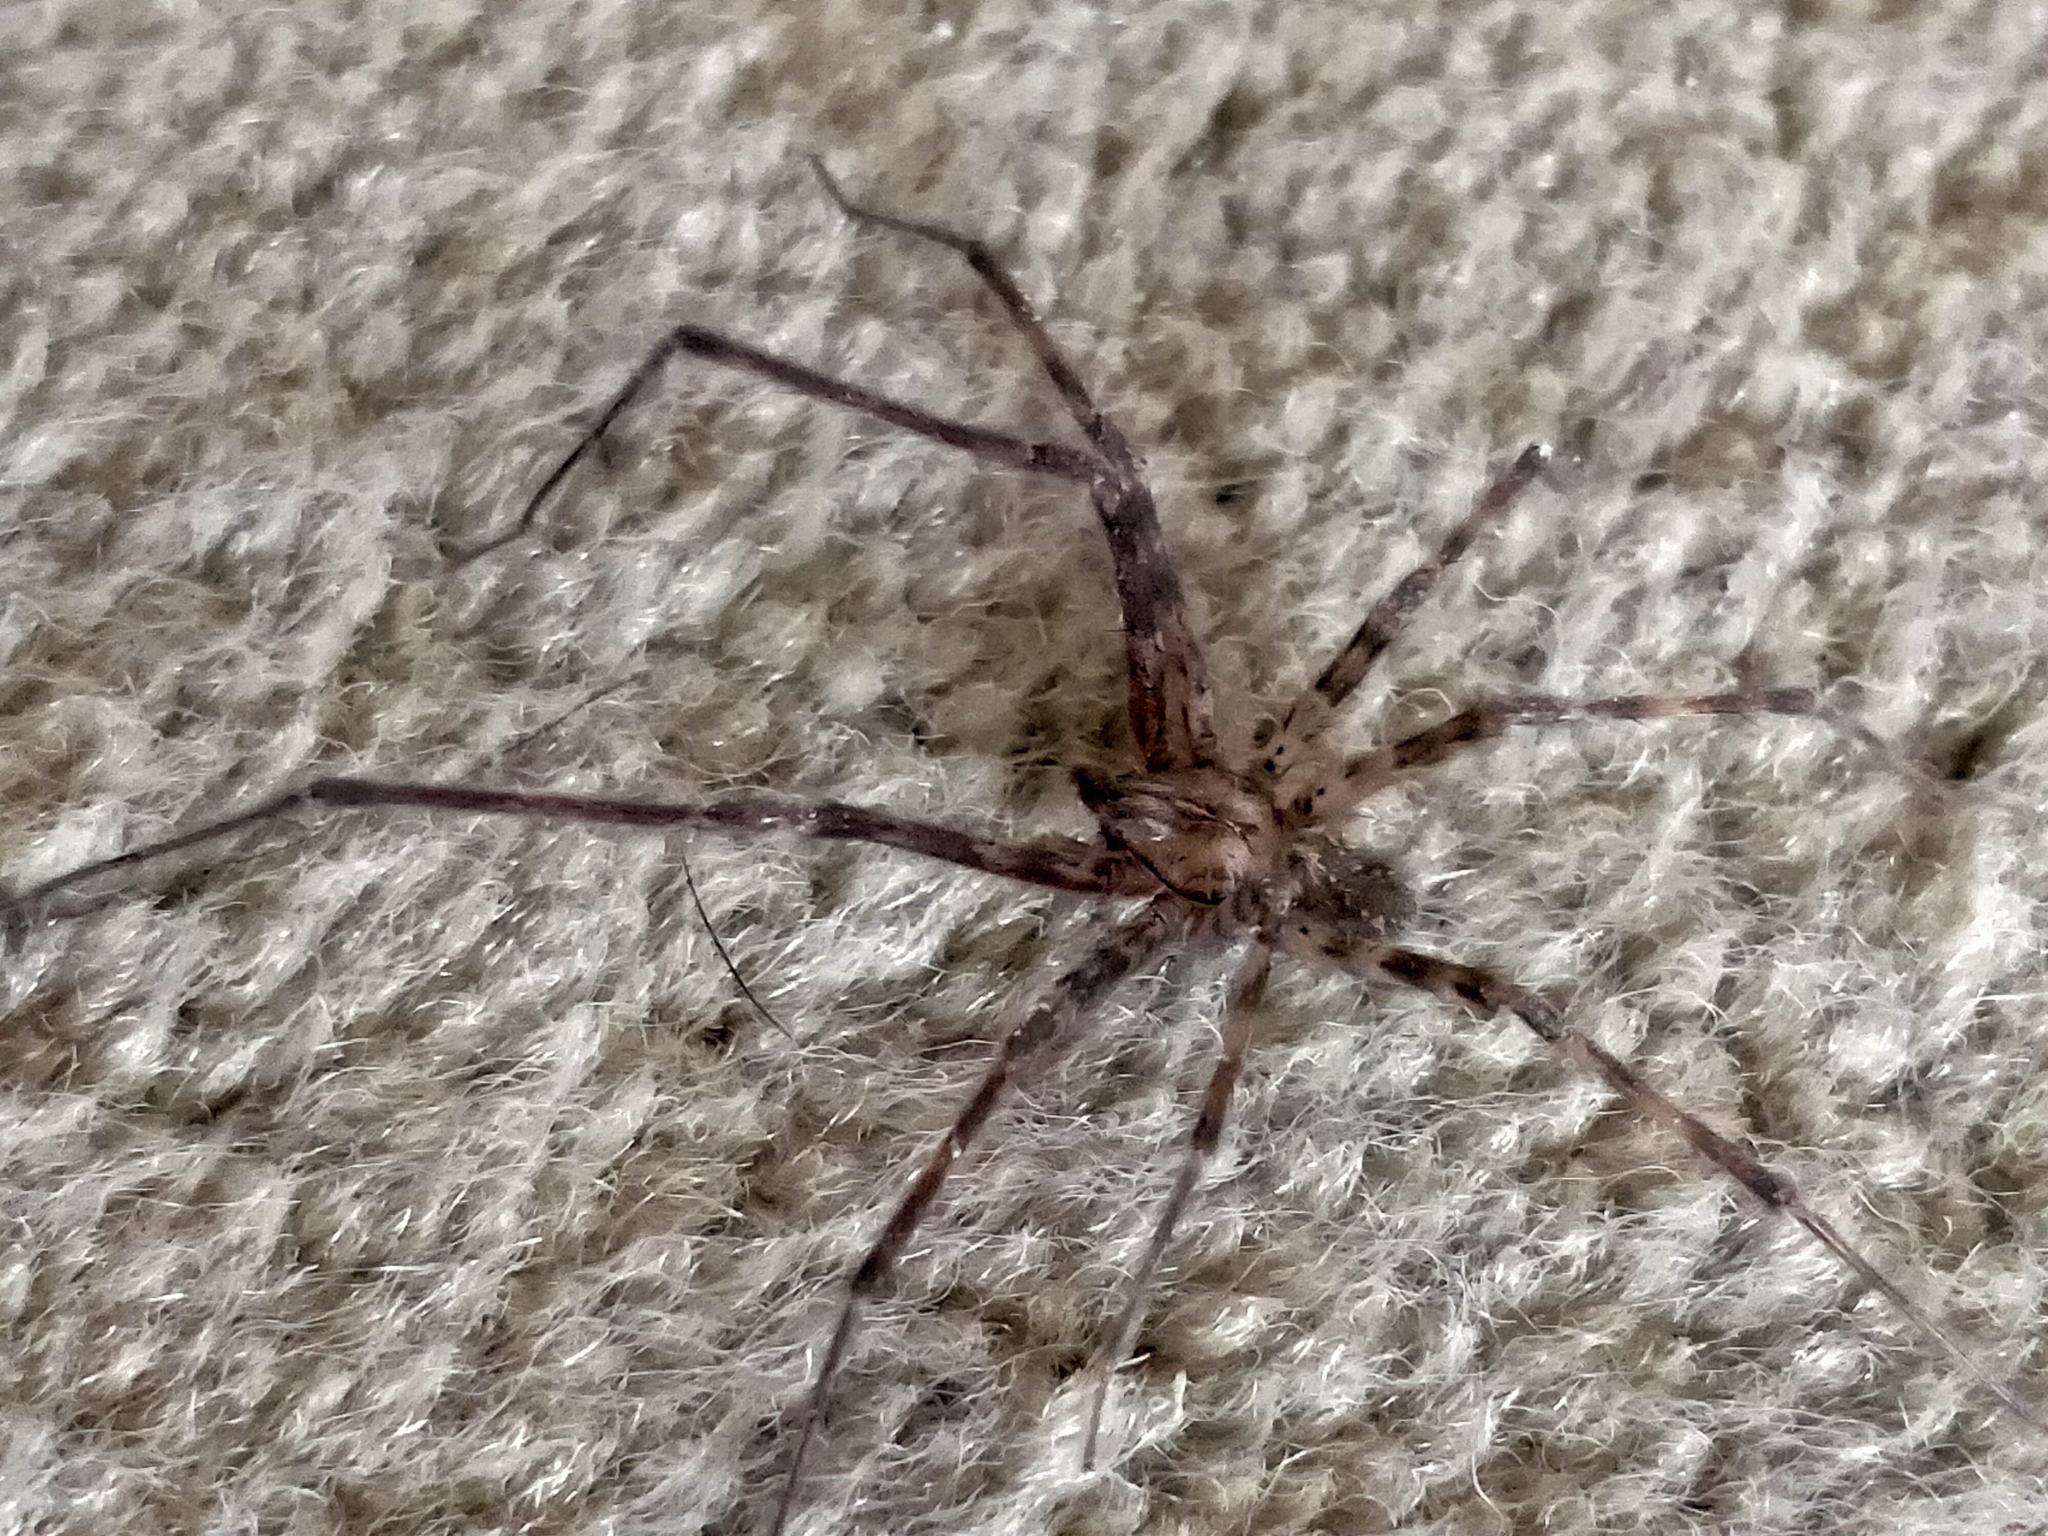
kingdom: Animalia
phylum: Arthropoda
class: Arachnida
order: Araneae
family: Stiphidiidae
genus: Stiphidion
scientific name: Stiphidion facetum
